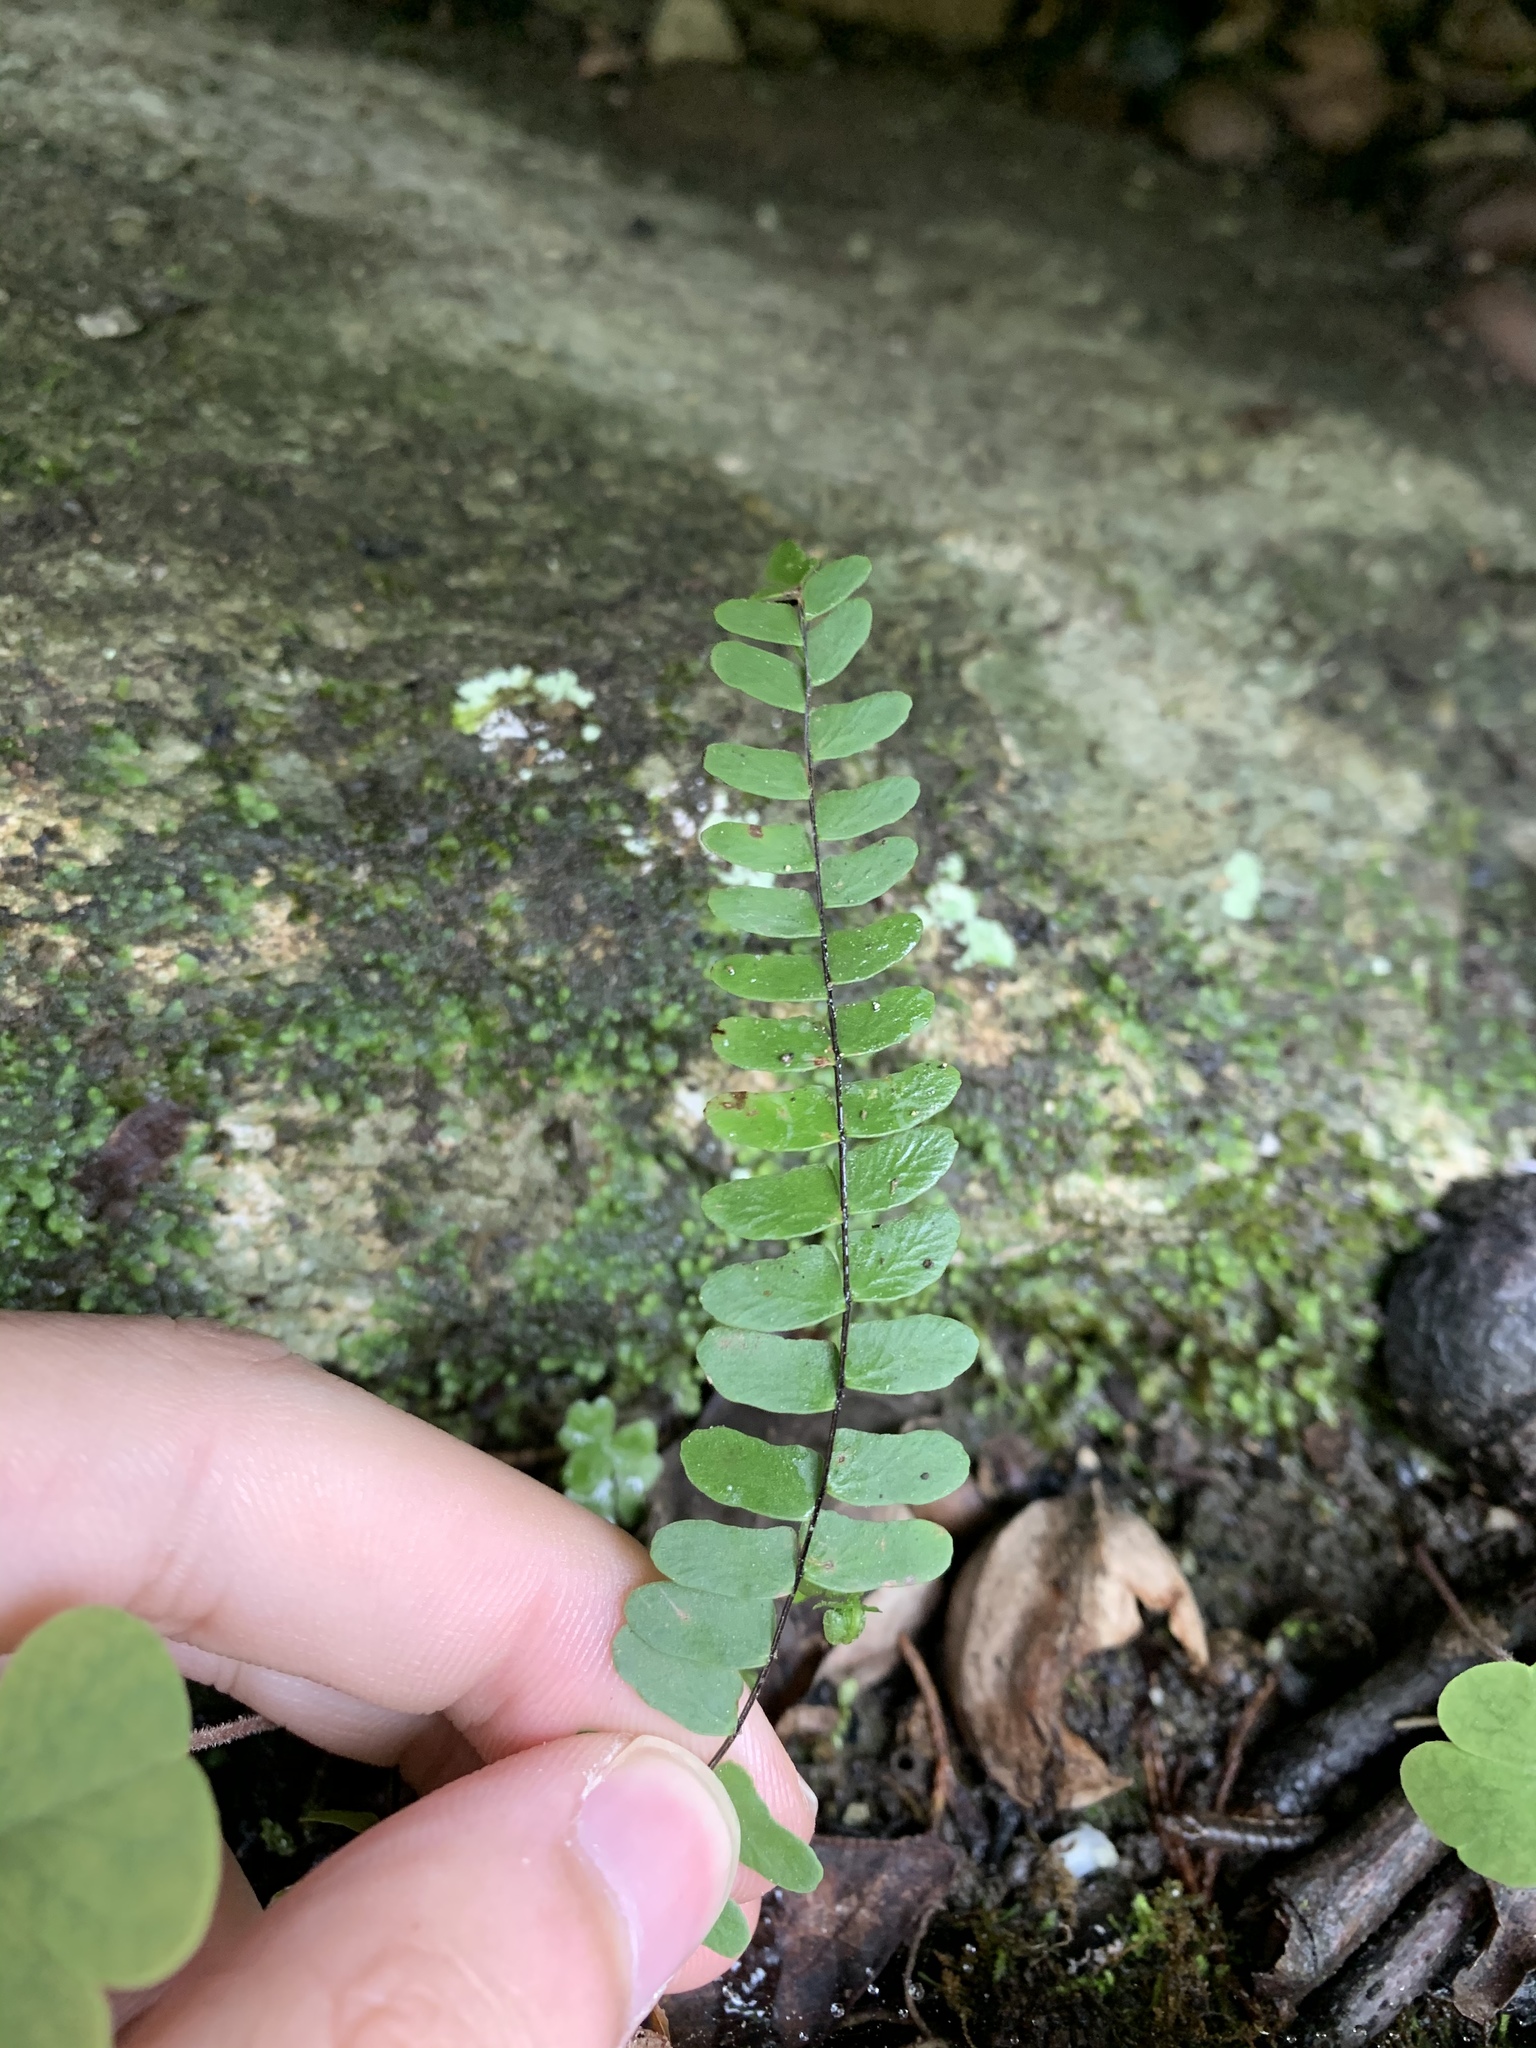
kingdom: Plantae
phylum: Tracheophyta
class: Polypodiopsida
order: Polypodiales
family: Aspleniaceae
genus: Asplenium
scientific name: Asplenium resiliens
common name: Blackstem spleenwort
